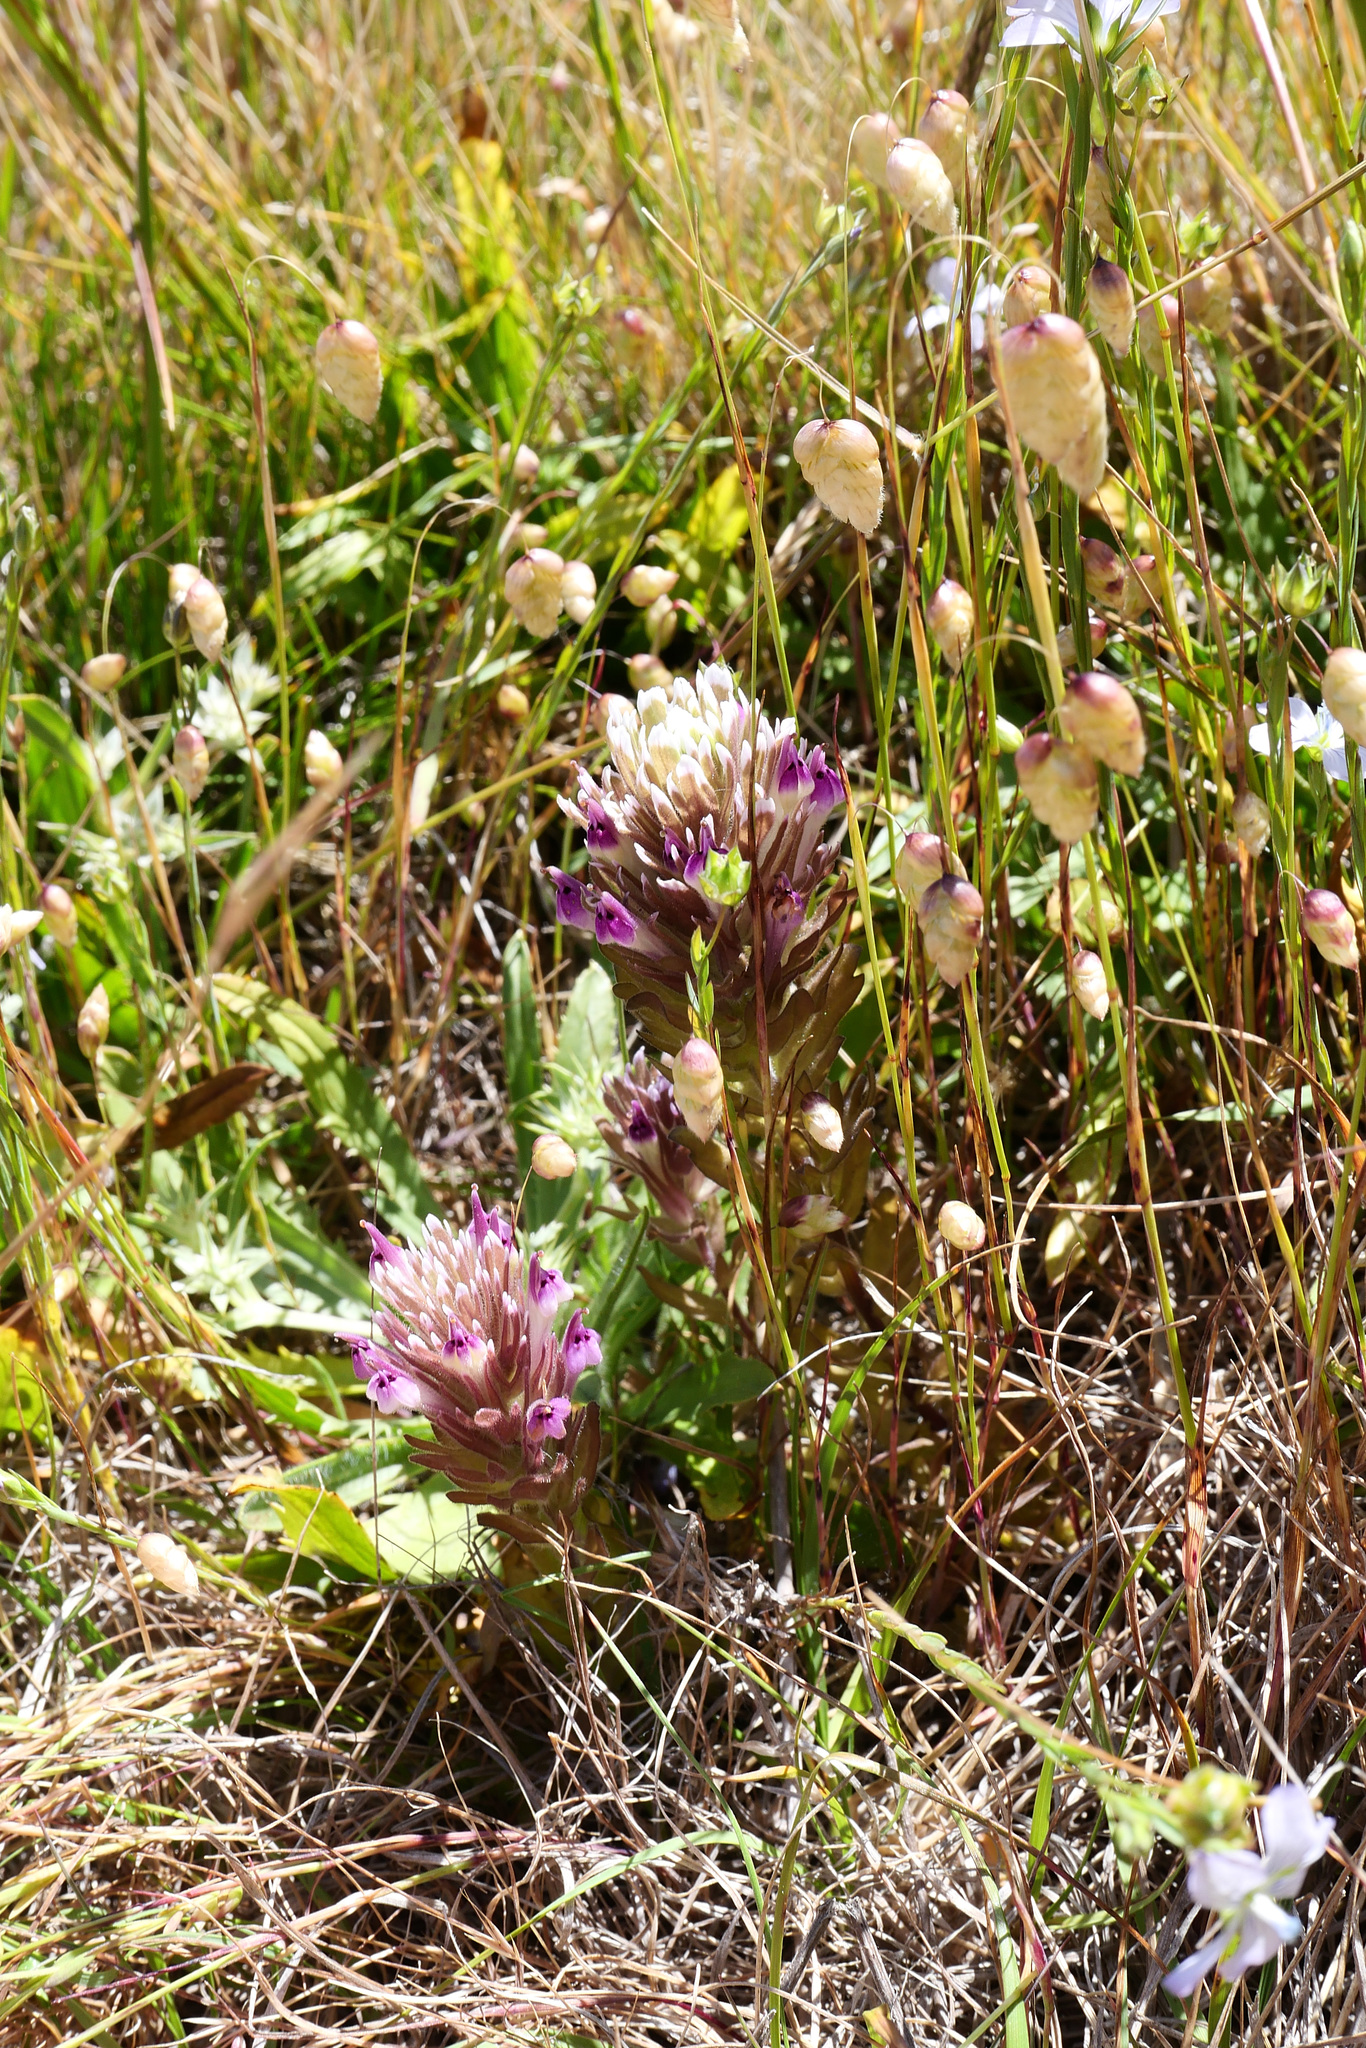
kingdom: Plantae
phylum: Tracheophyta
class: Magnoliopsida
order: Lamiales
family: Orobanchaceae
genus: Castilleja
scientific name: Castilleja ambigua
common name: Johnny-nip
